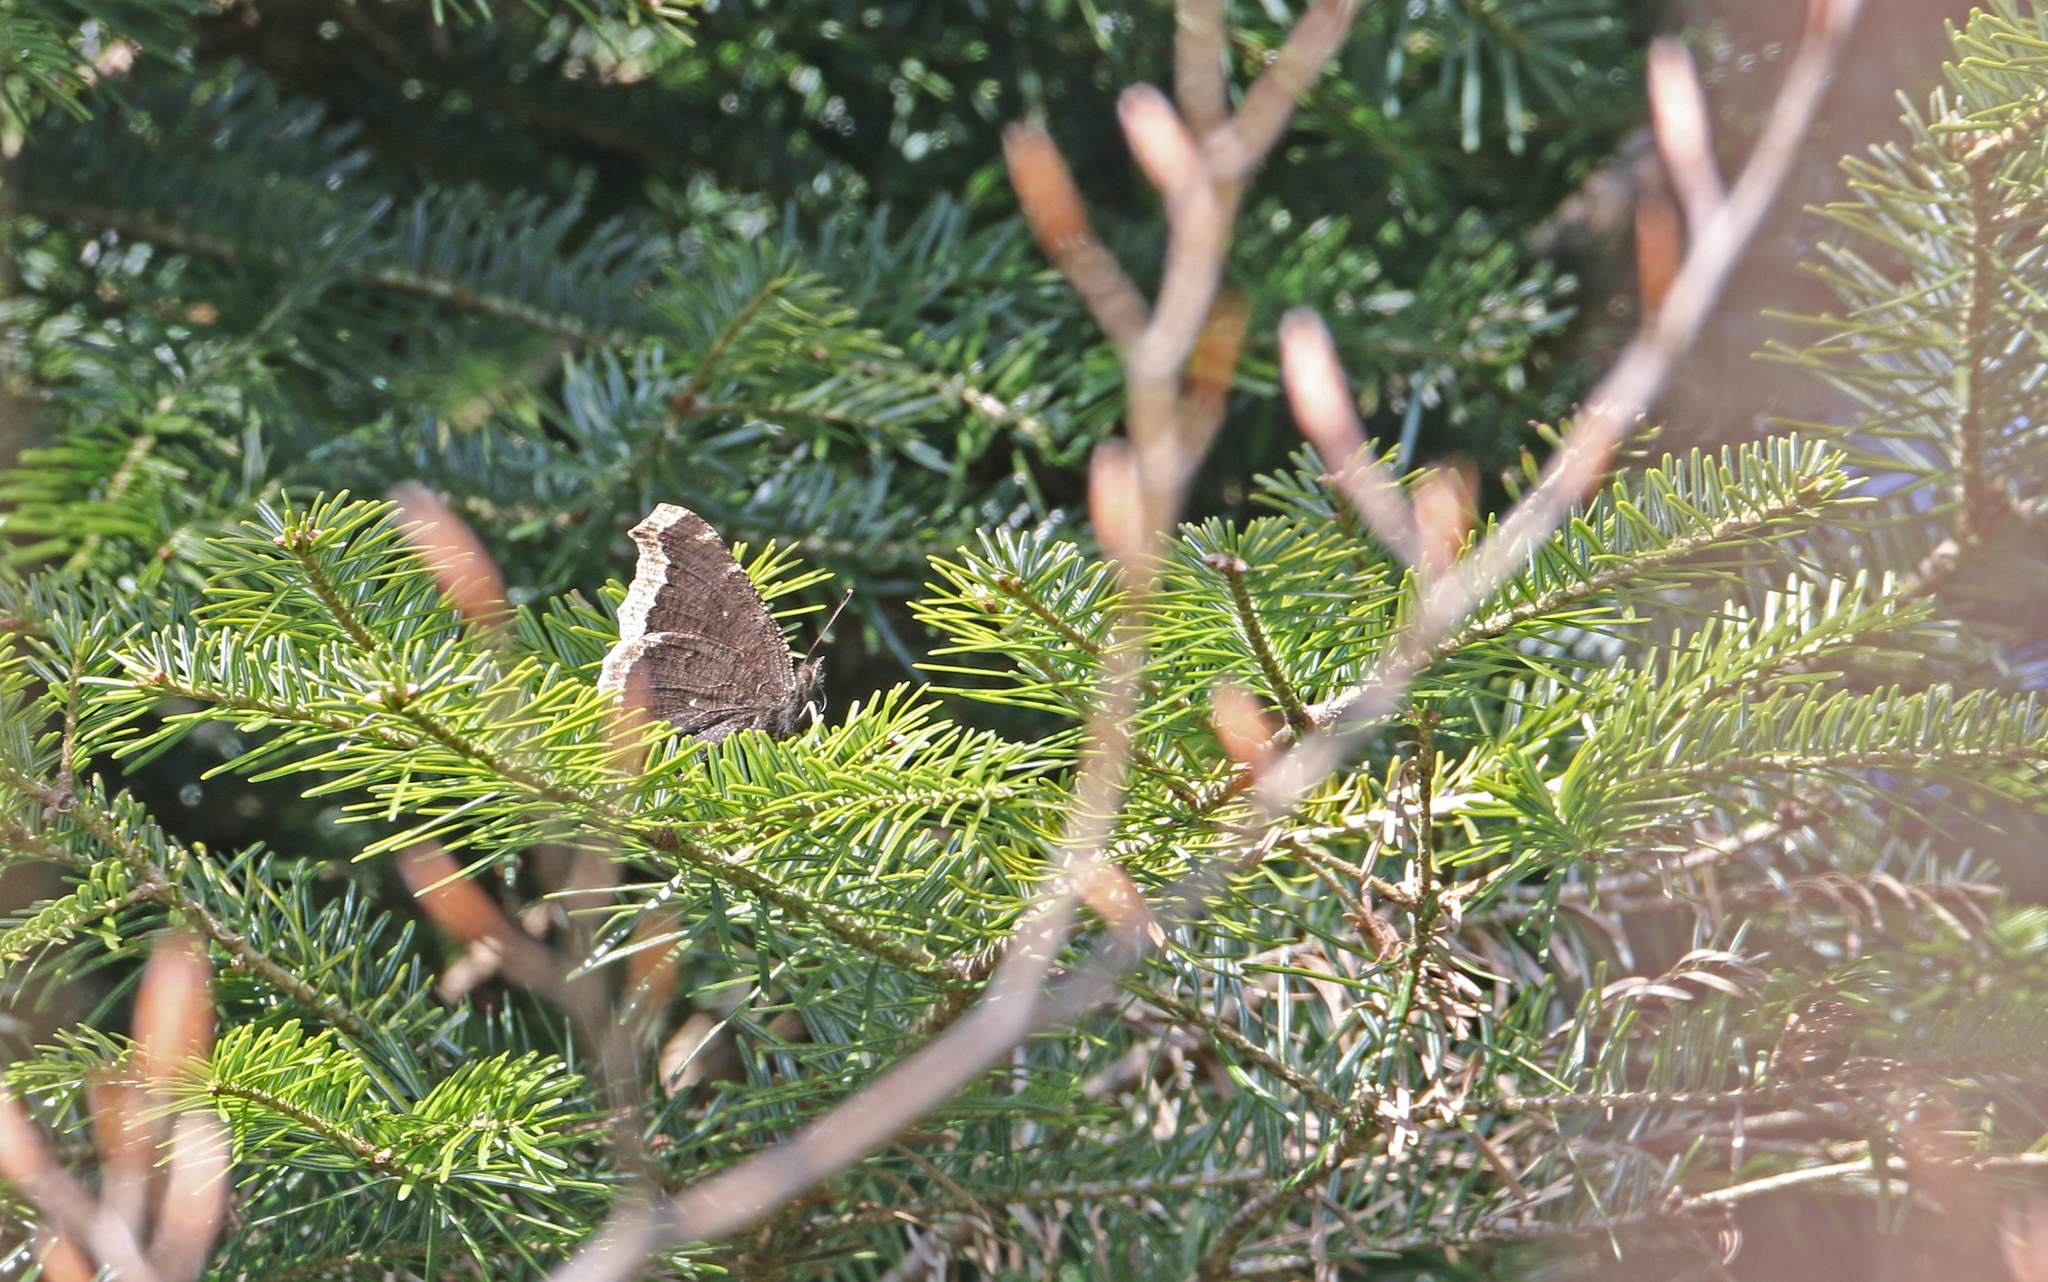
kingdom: Animalia
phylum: Arthropoda
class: Insecta
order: Lepidoptera
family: Nymphalidae
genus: Nymphalis
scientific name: Nymphalis antiopa
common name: Camberwell beauty
